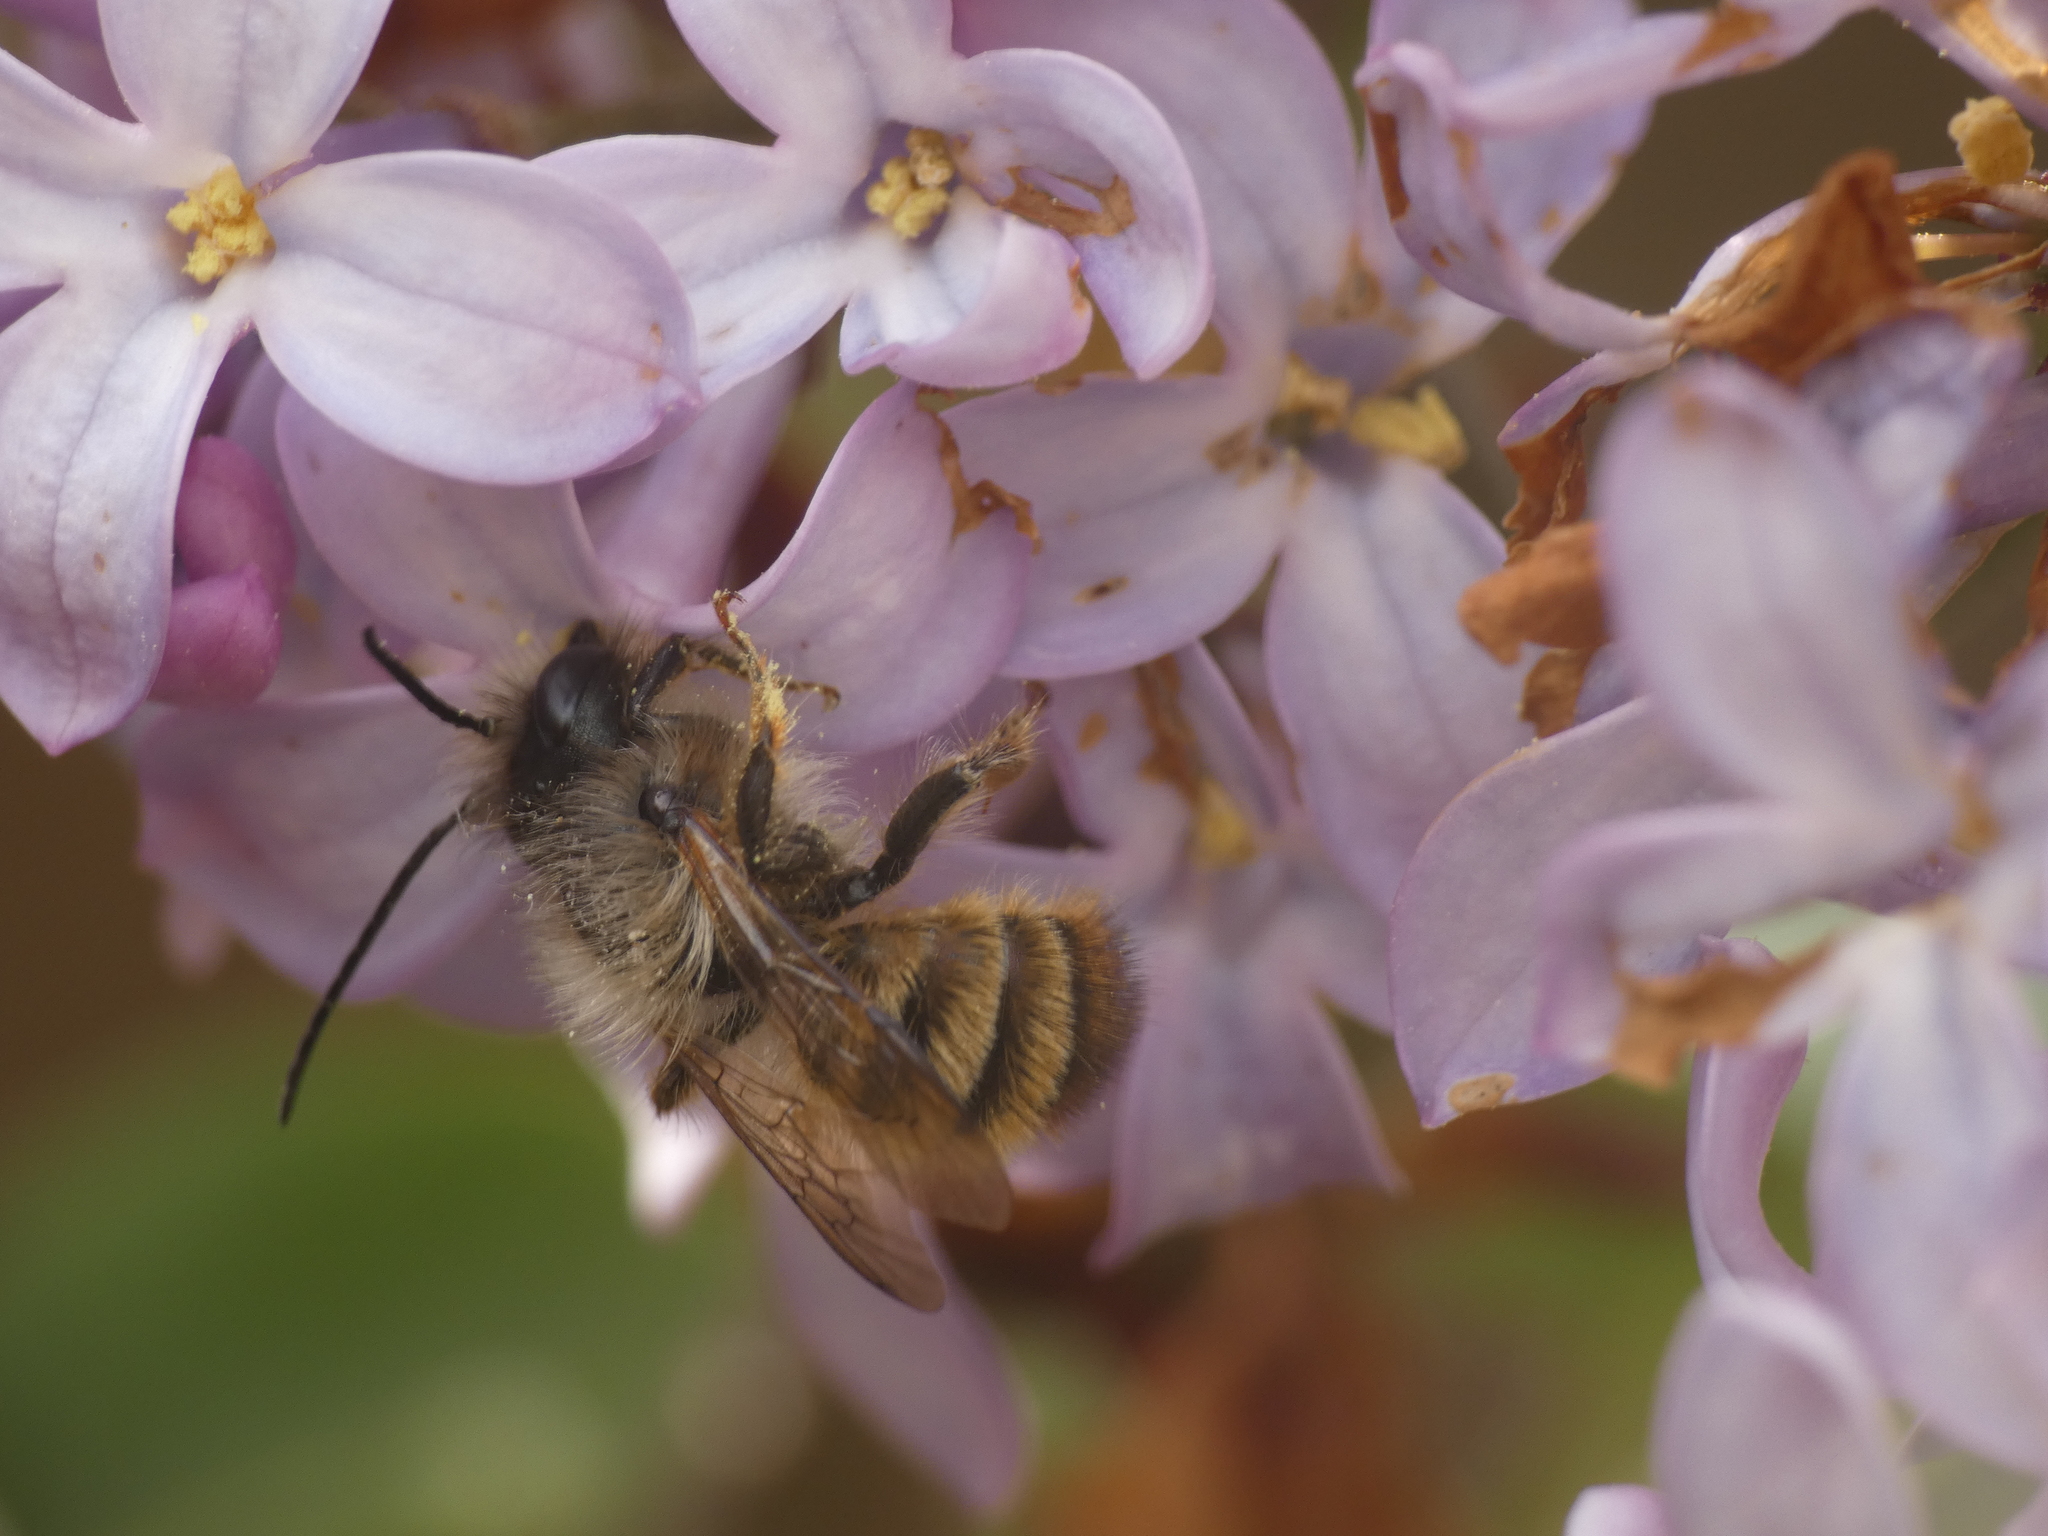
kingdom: Animalia
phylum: Arthropoda
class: Insecta
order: Hymenoptera
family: Megachilidae
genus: Osmia
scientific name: Osmia bicornis
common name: Red mason bee
